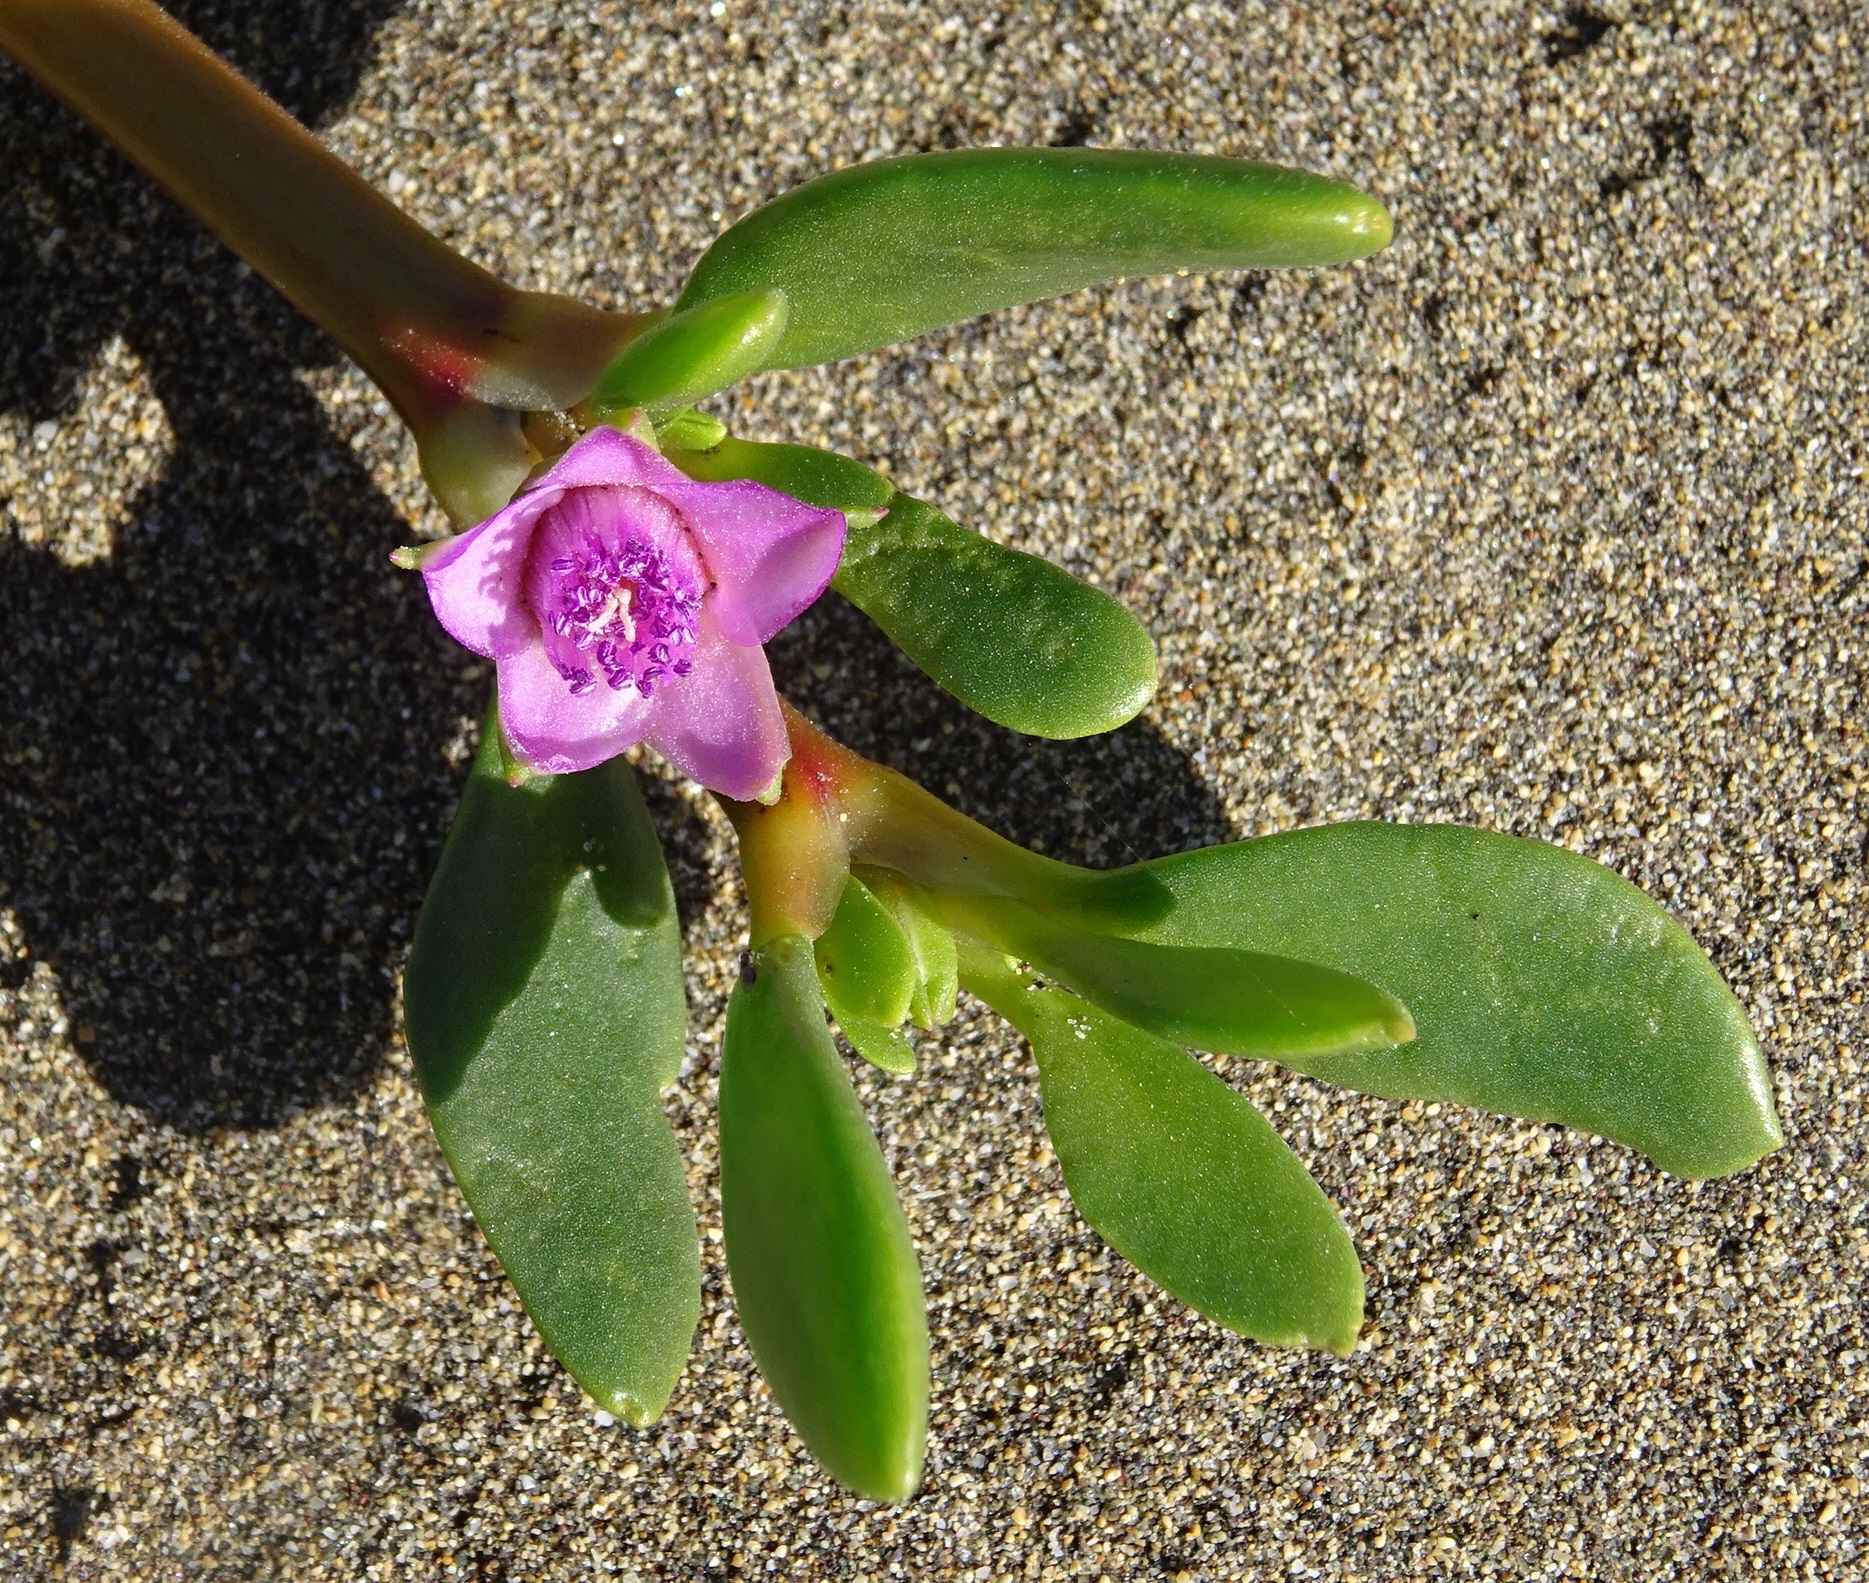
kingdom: Plantae
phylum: Tracheophyta
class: Magnoliopsida
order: Caryophyllales
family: Aizoaceae
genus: Sesuvium
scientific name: Sesuvium portulacastrum
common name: Sea-purslane
